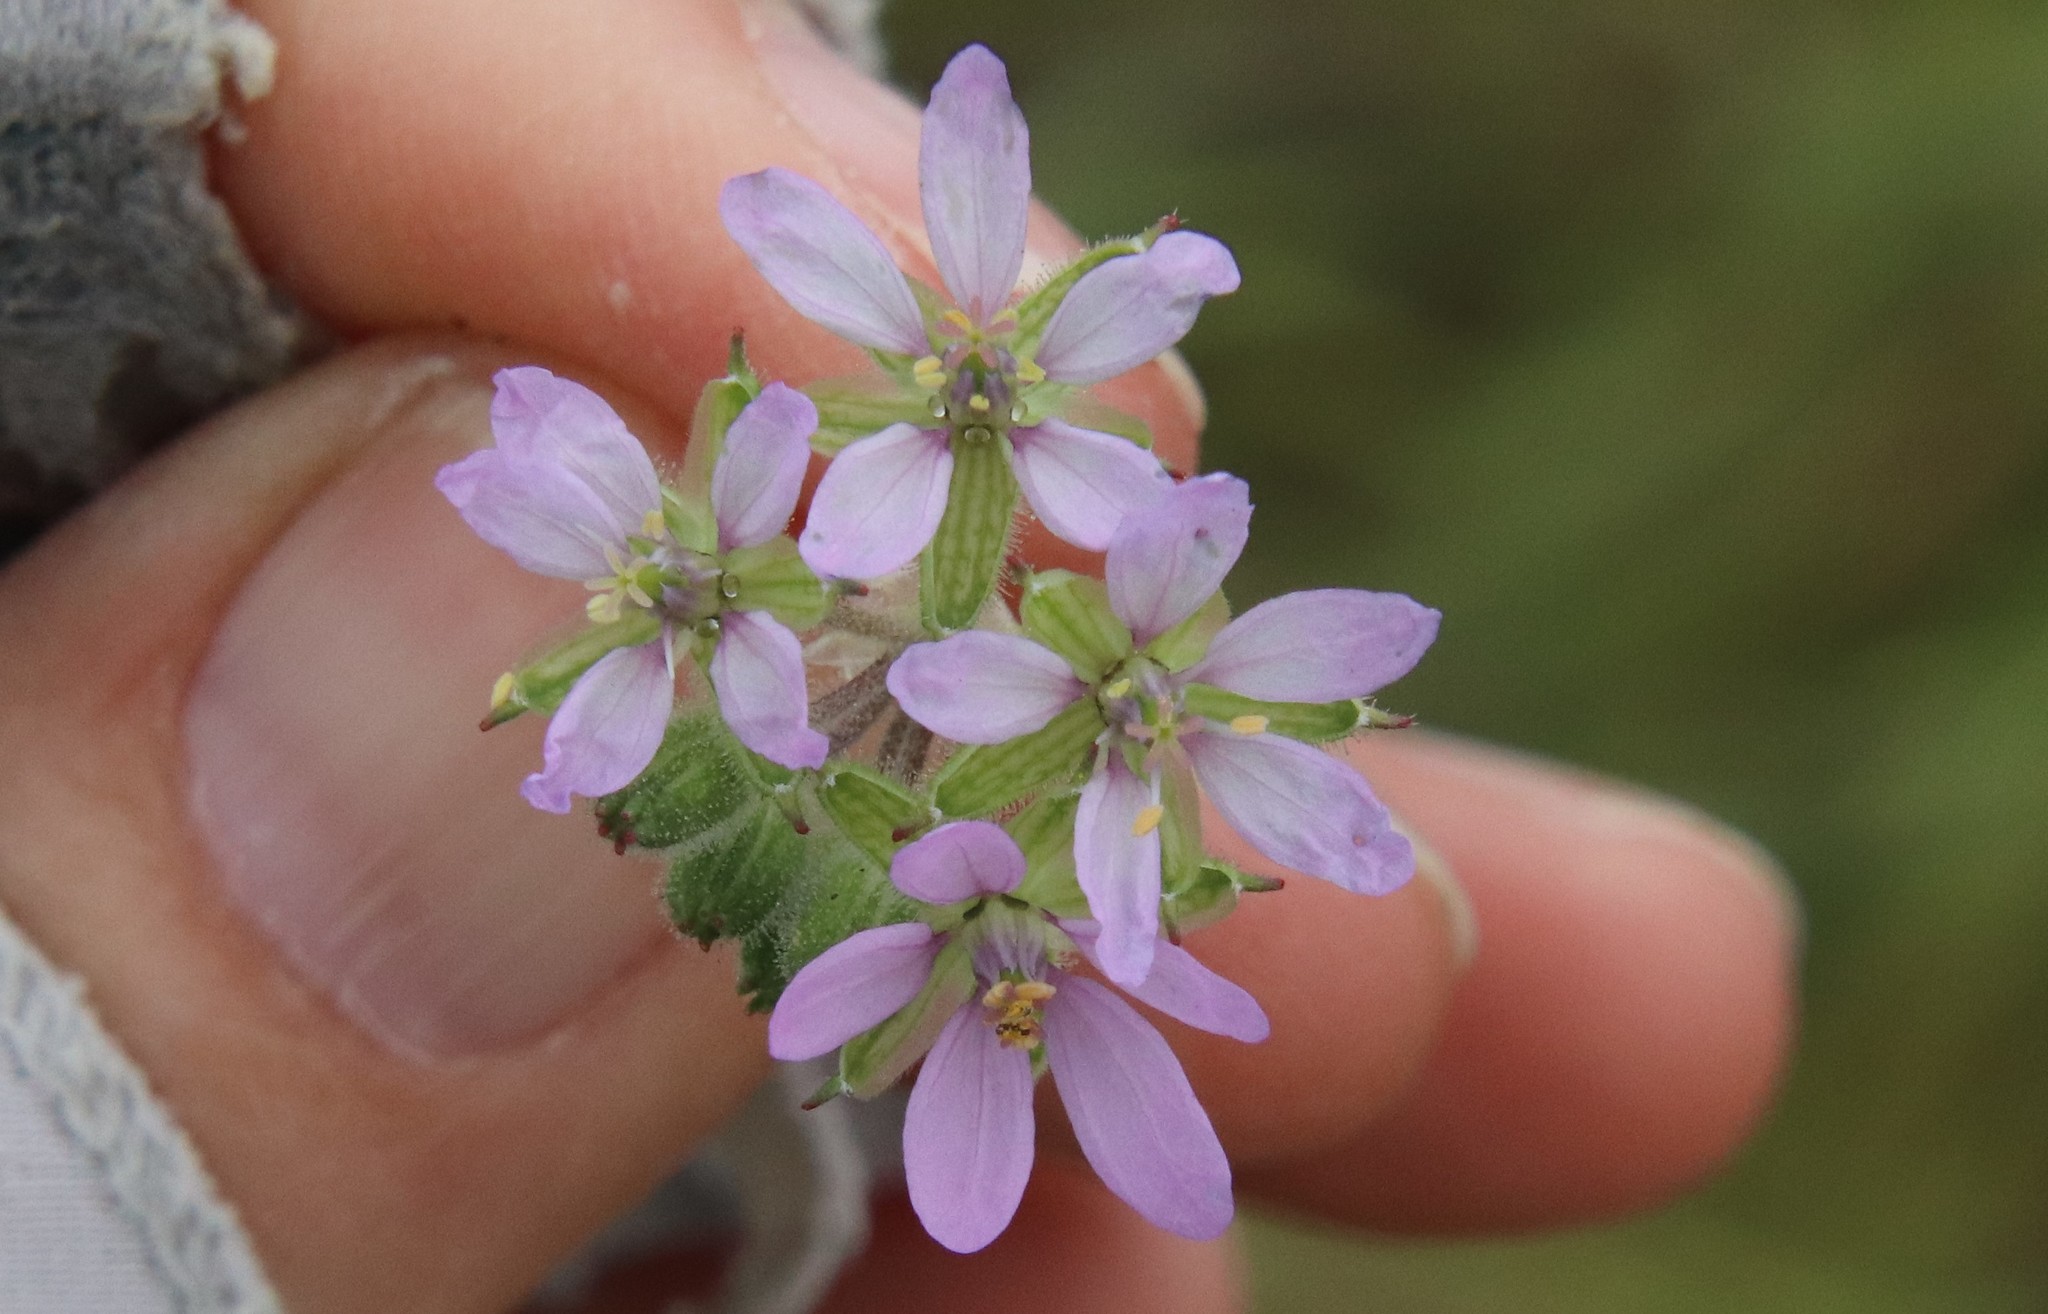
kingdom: Plantae
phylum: Tracheophyta
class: Magnoliopsida
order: Geraniales
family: Geraniaceae
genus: Erodium
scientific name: Erodium moschatum
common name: Musk stork's-bill
